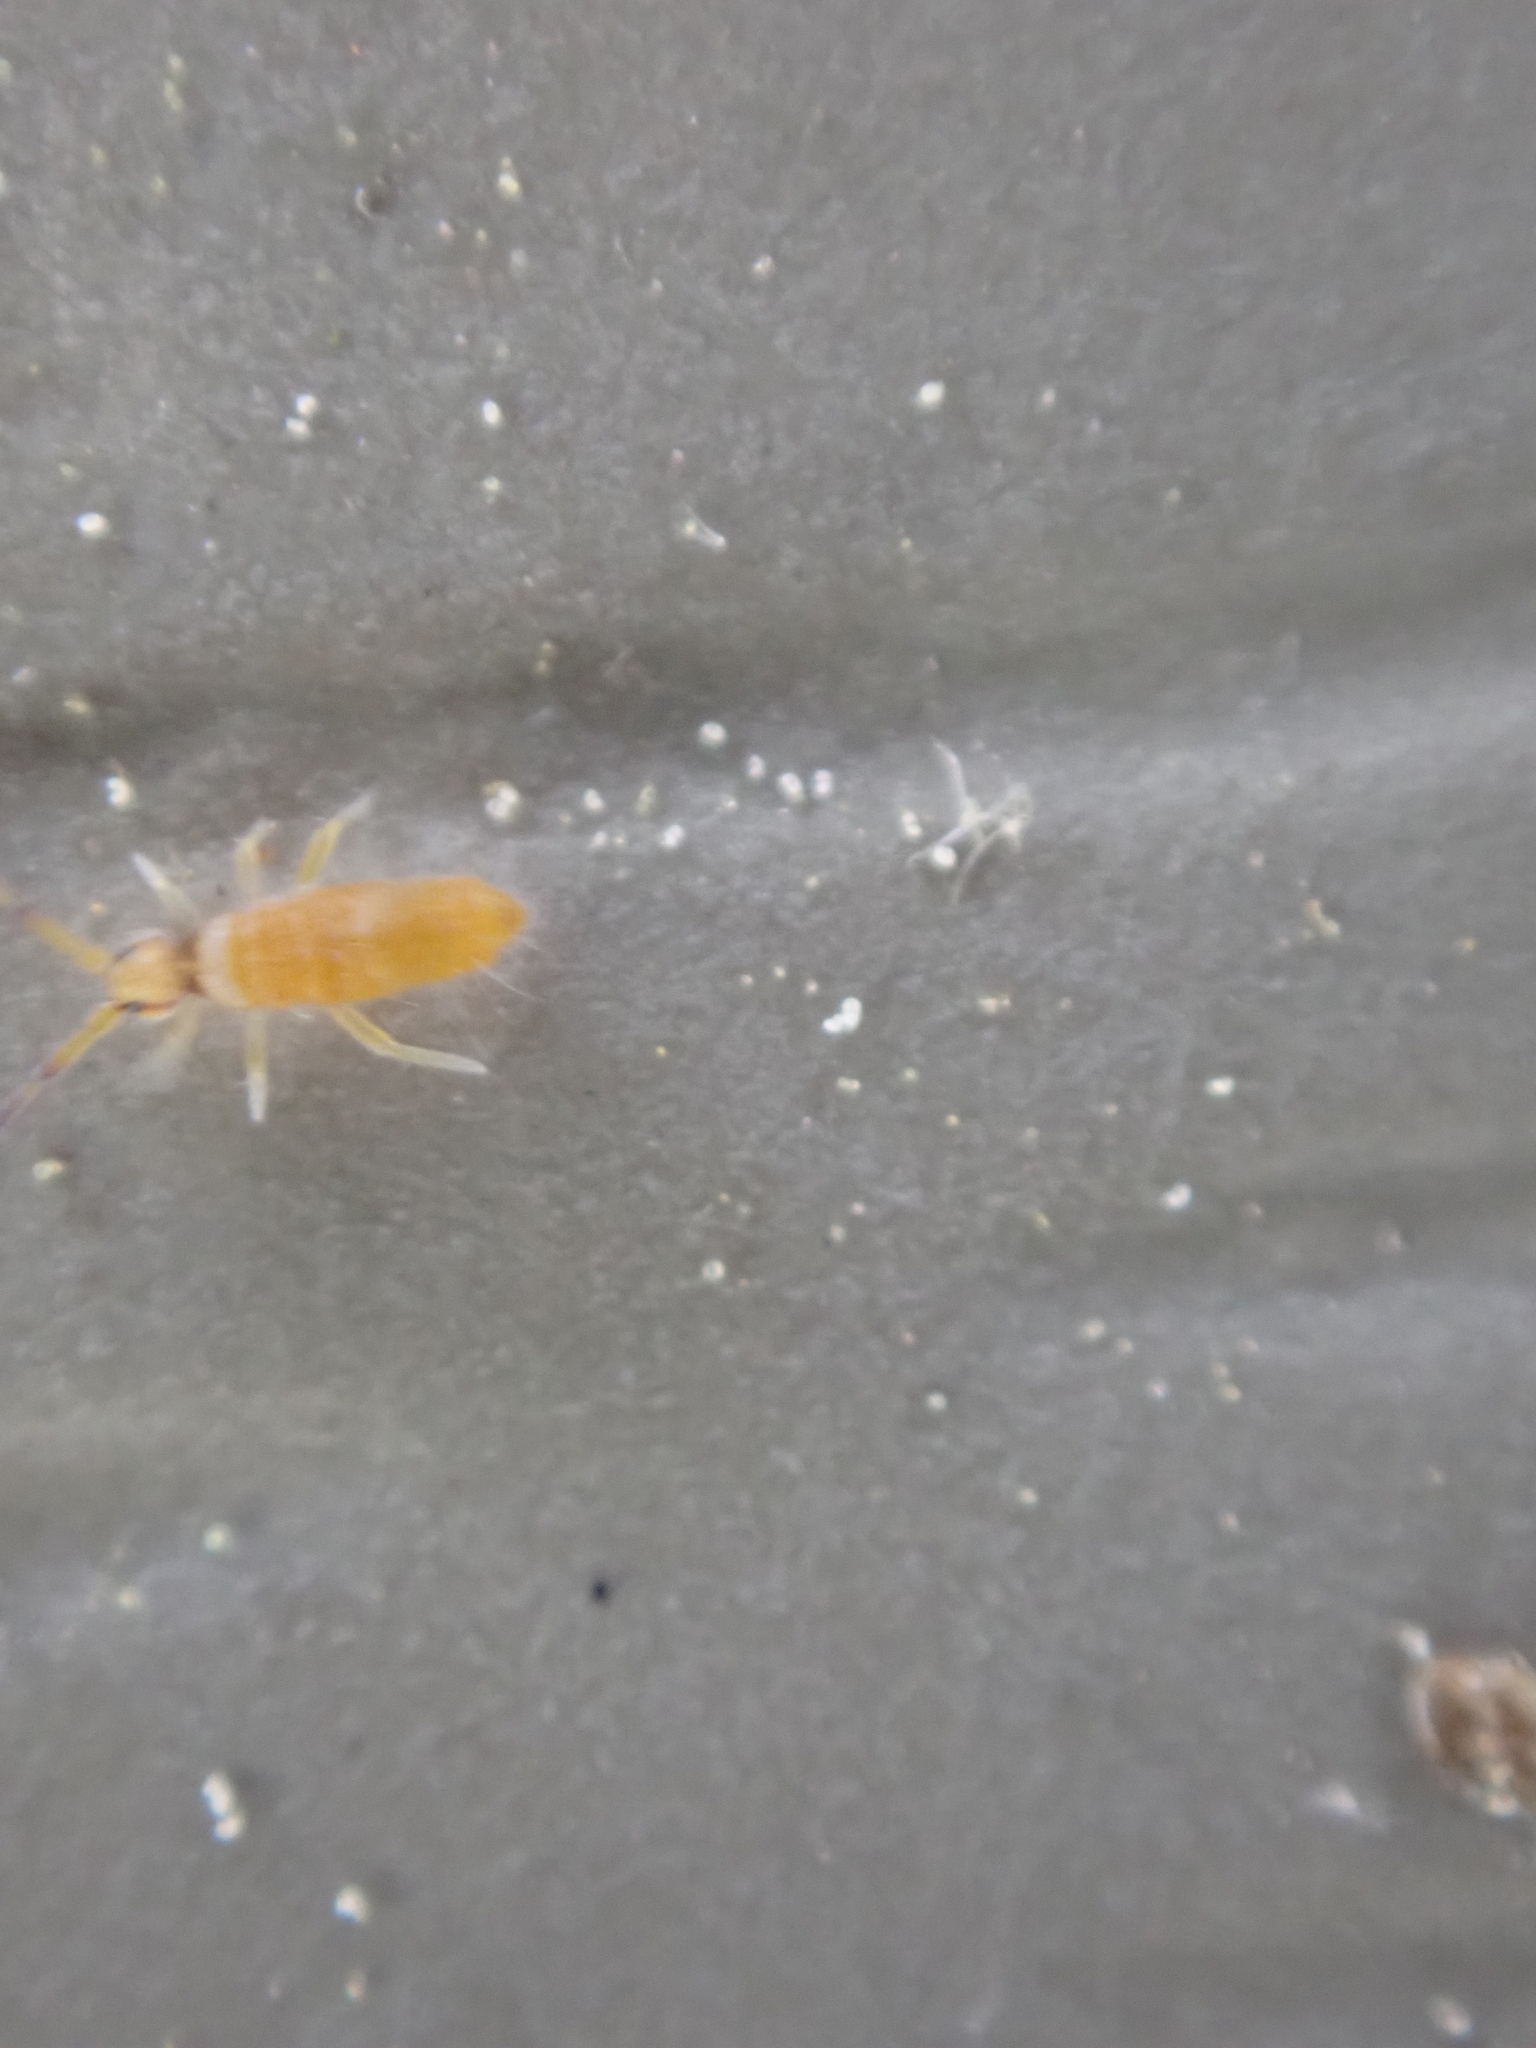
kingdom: Animalia
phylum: Arthropoda
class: Collembola
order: Entomobryomorpha
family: Entomobryidae
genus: Entomobrya
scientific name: Entomobrya atrocincta
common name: Springtail
